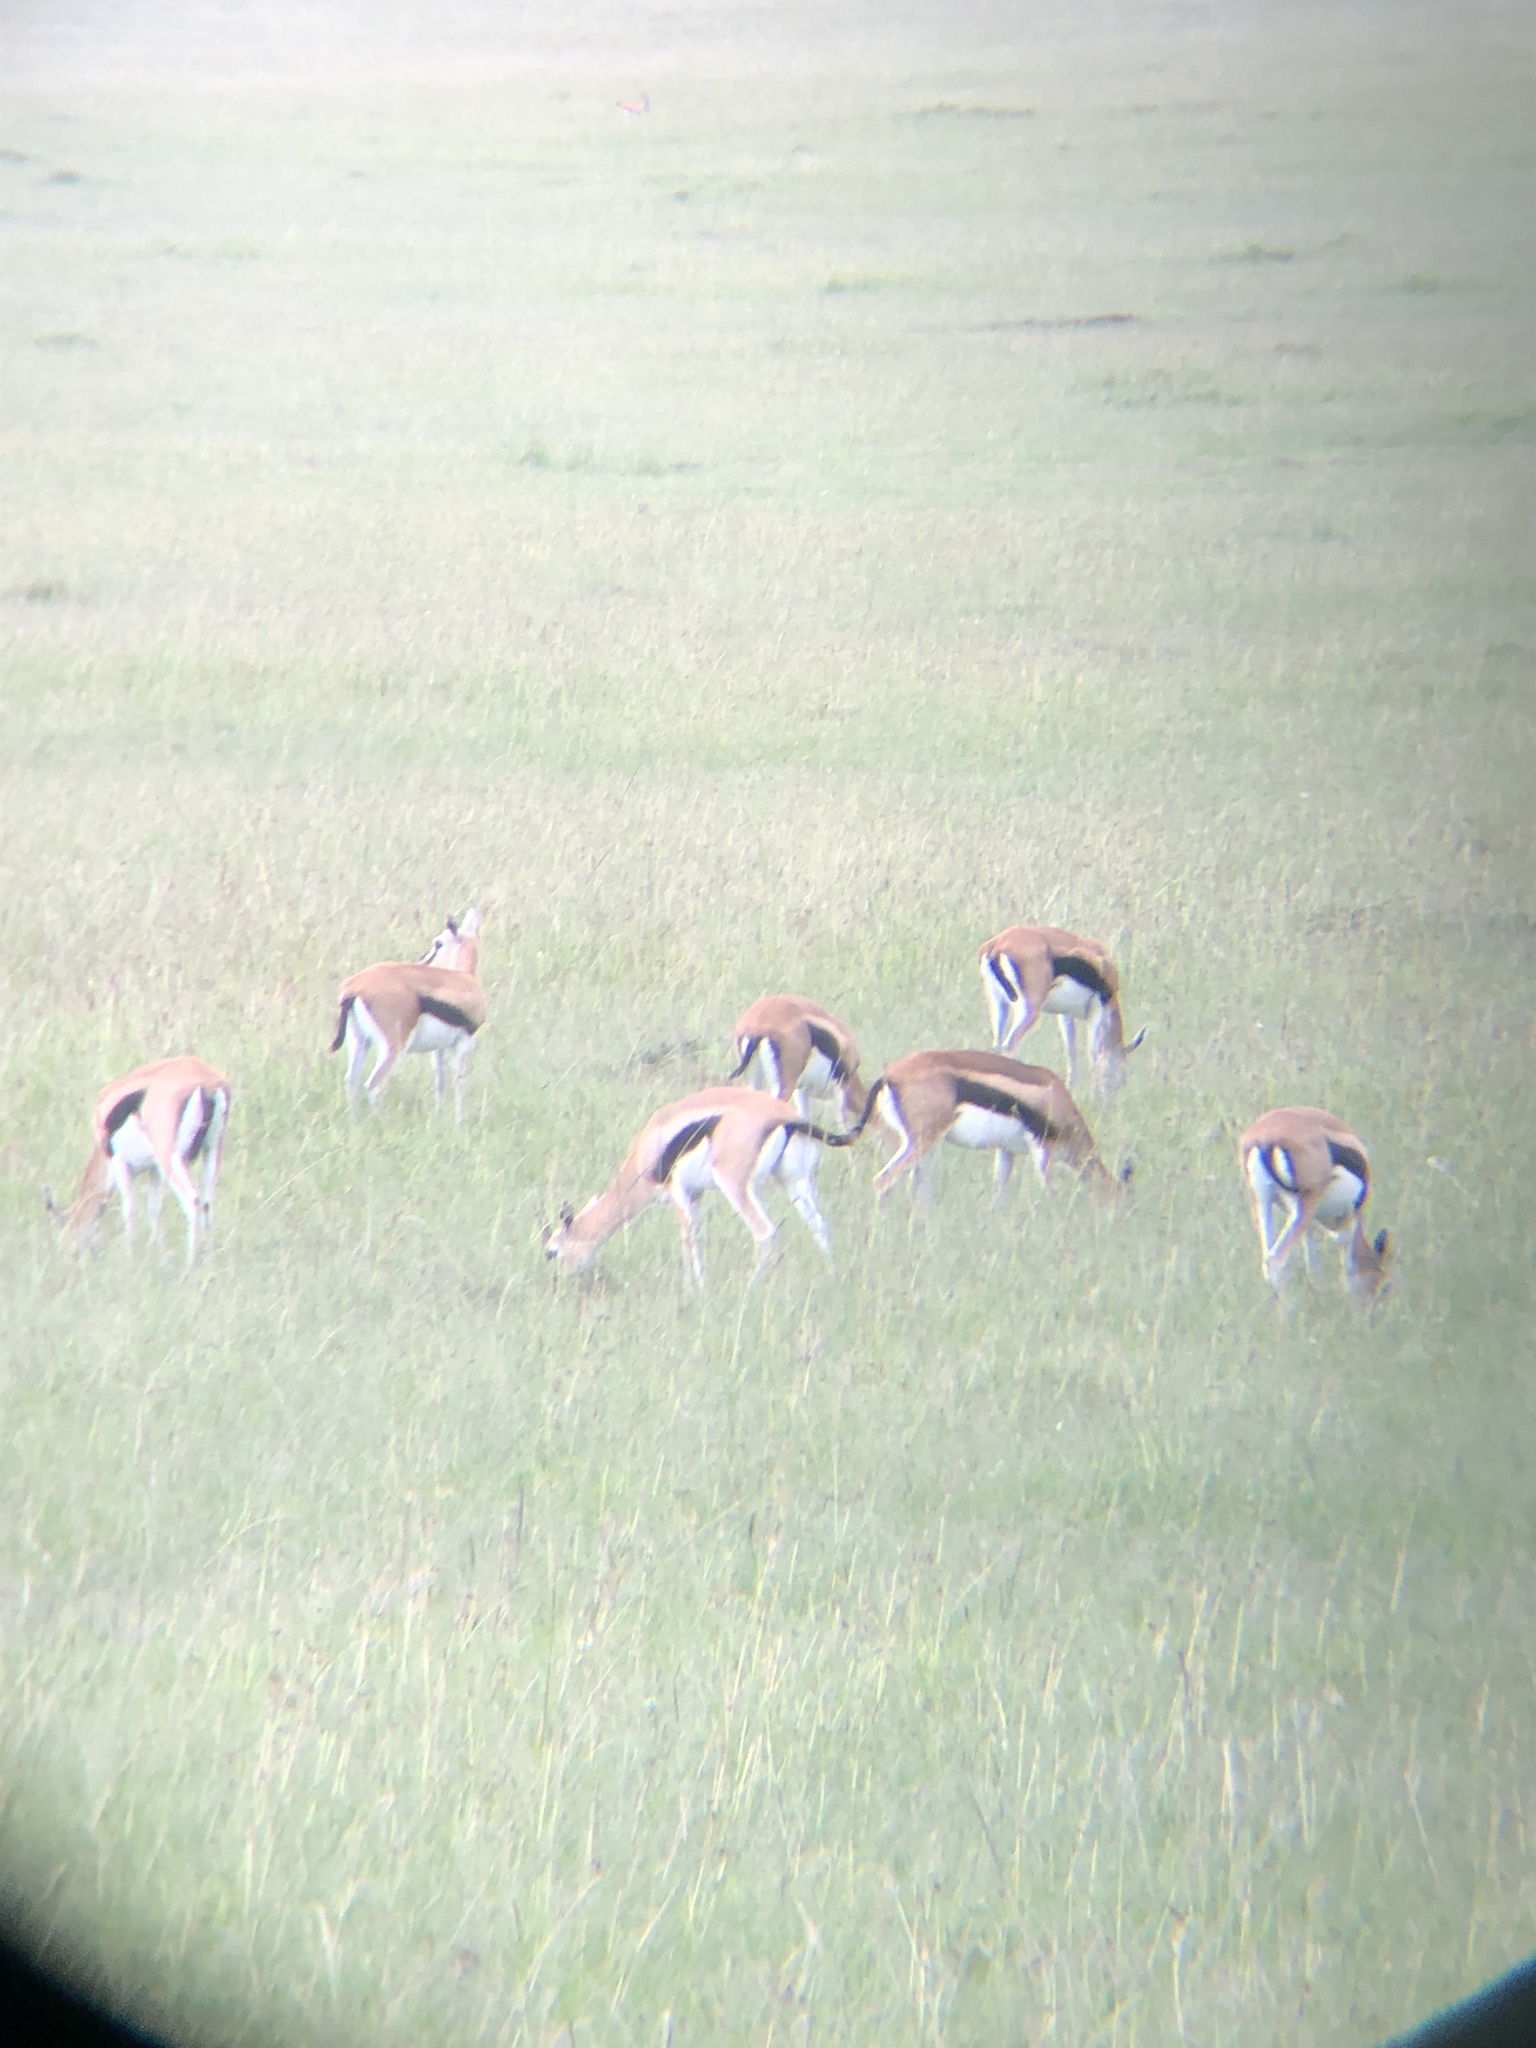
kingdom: Animalia
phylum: Chordata
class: Mammalia
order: Artiodactyla
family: Bovidae
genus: Eudorcas
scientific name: Eudorcas thomsonii
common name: Thomson's gazelle
